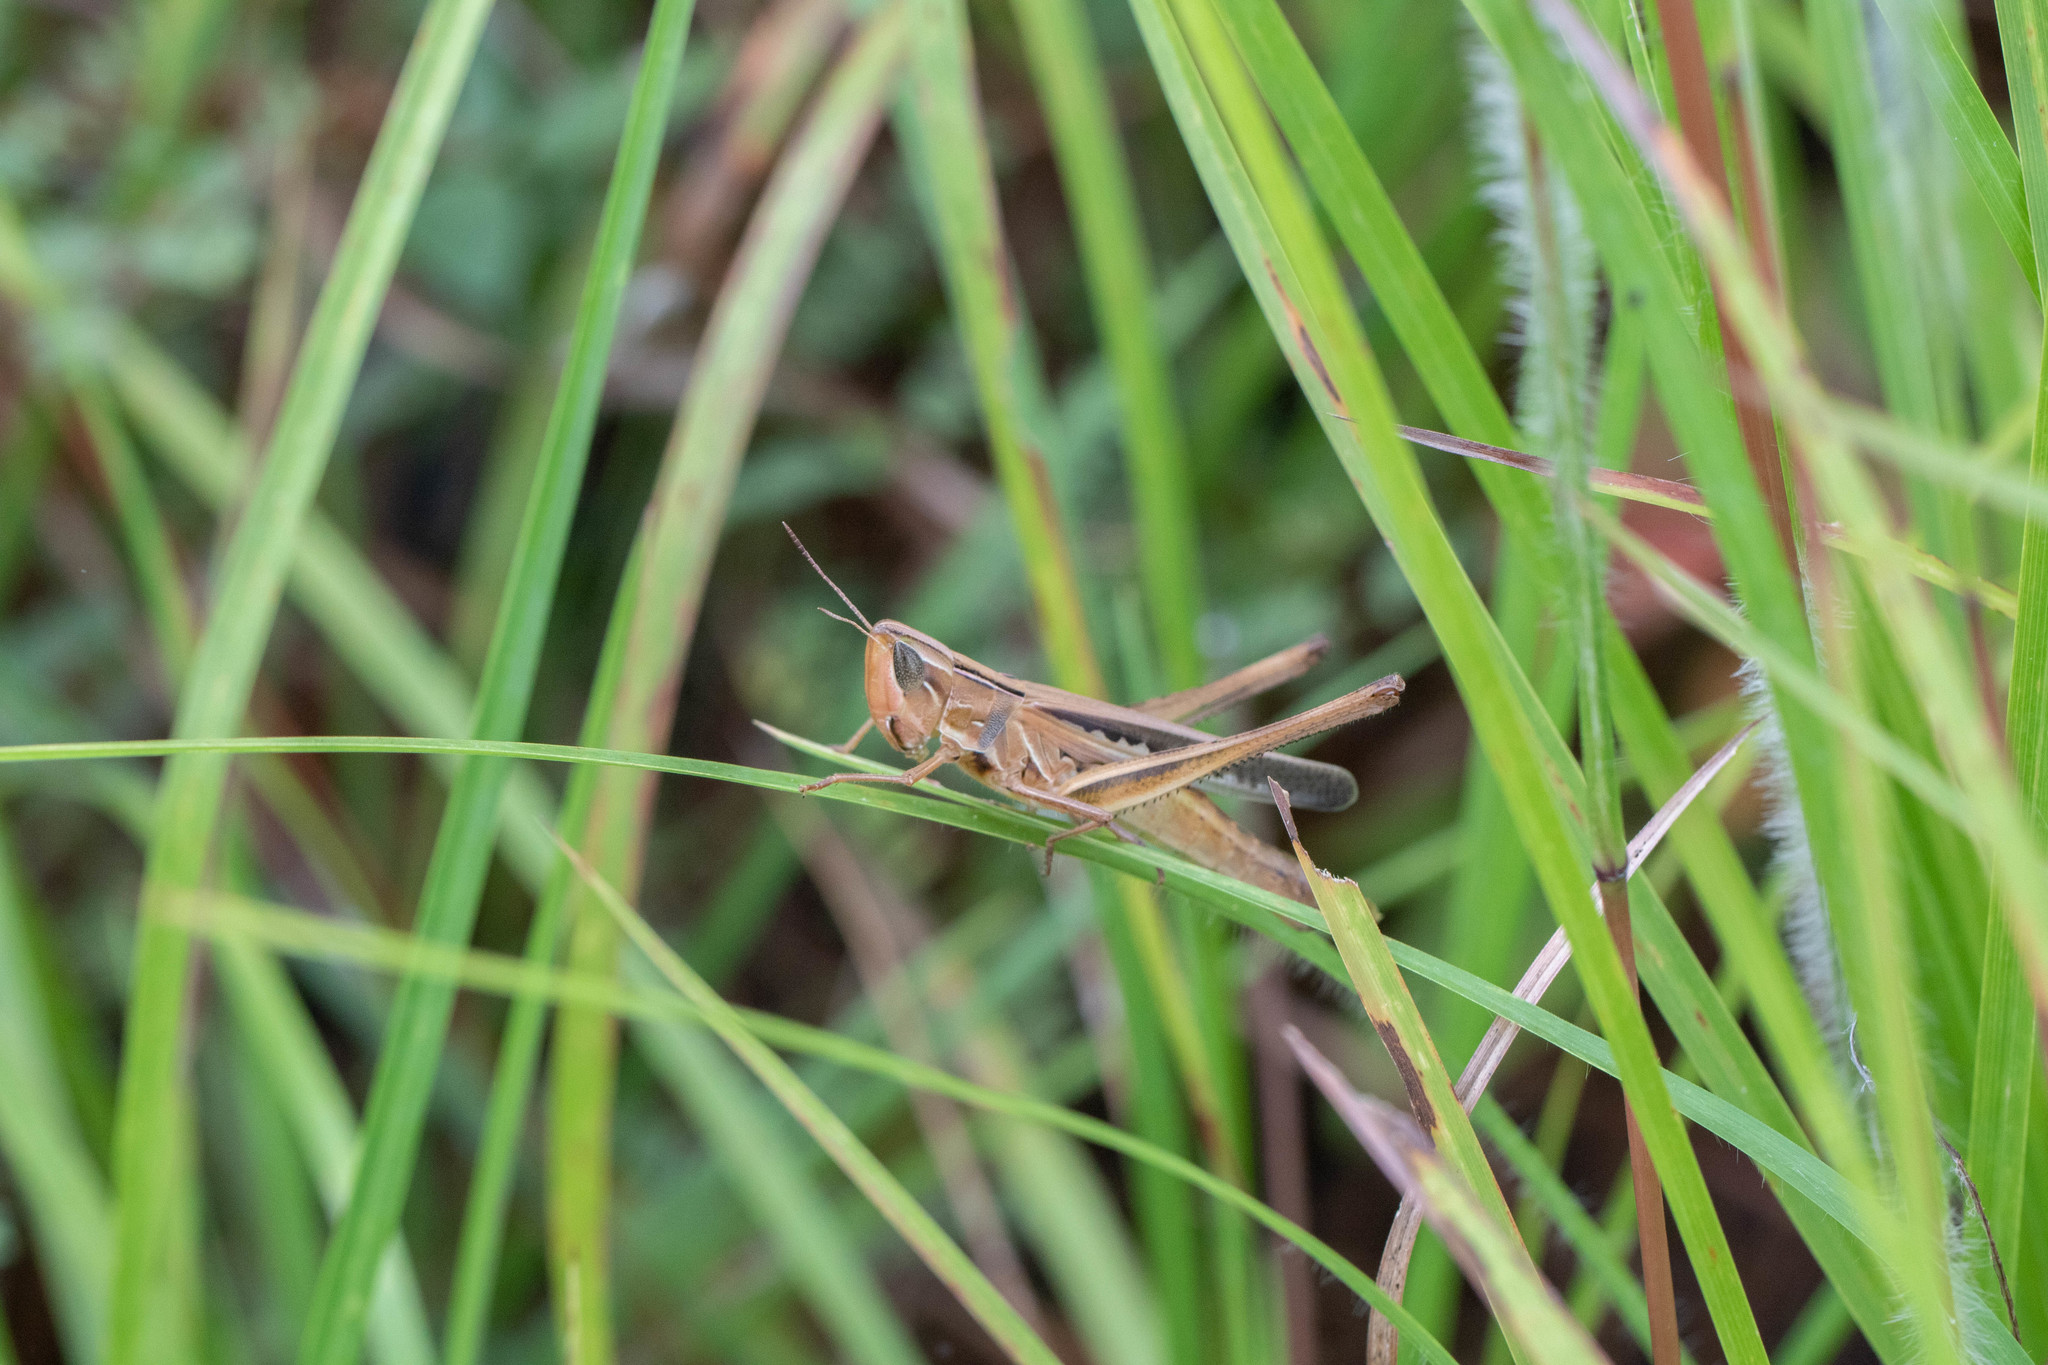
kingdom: Animalia
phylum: Arthropoda
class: Insecta
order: Orthoptera
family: Acrididae
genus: Syrbula
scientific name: Syrbula admirabilis
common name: Handsome grasshopper
